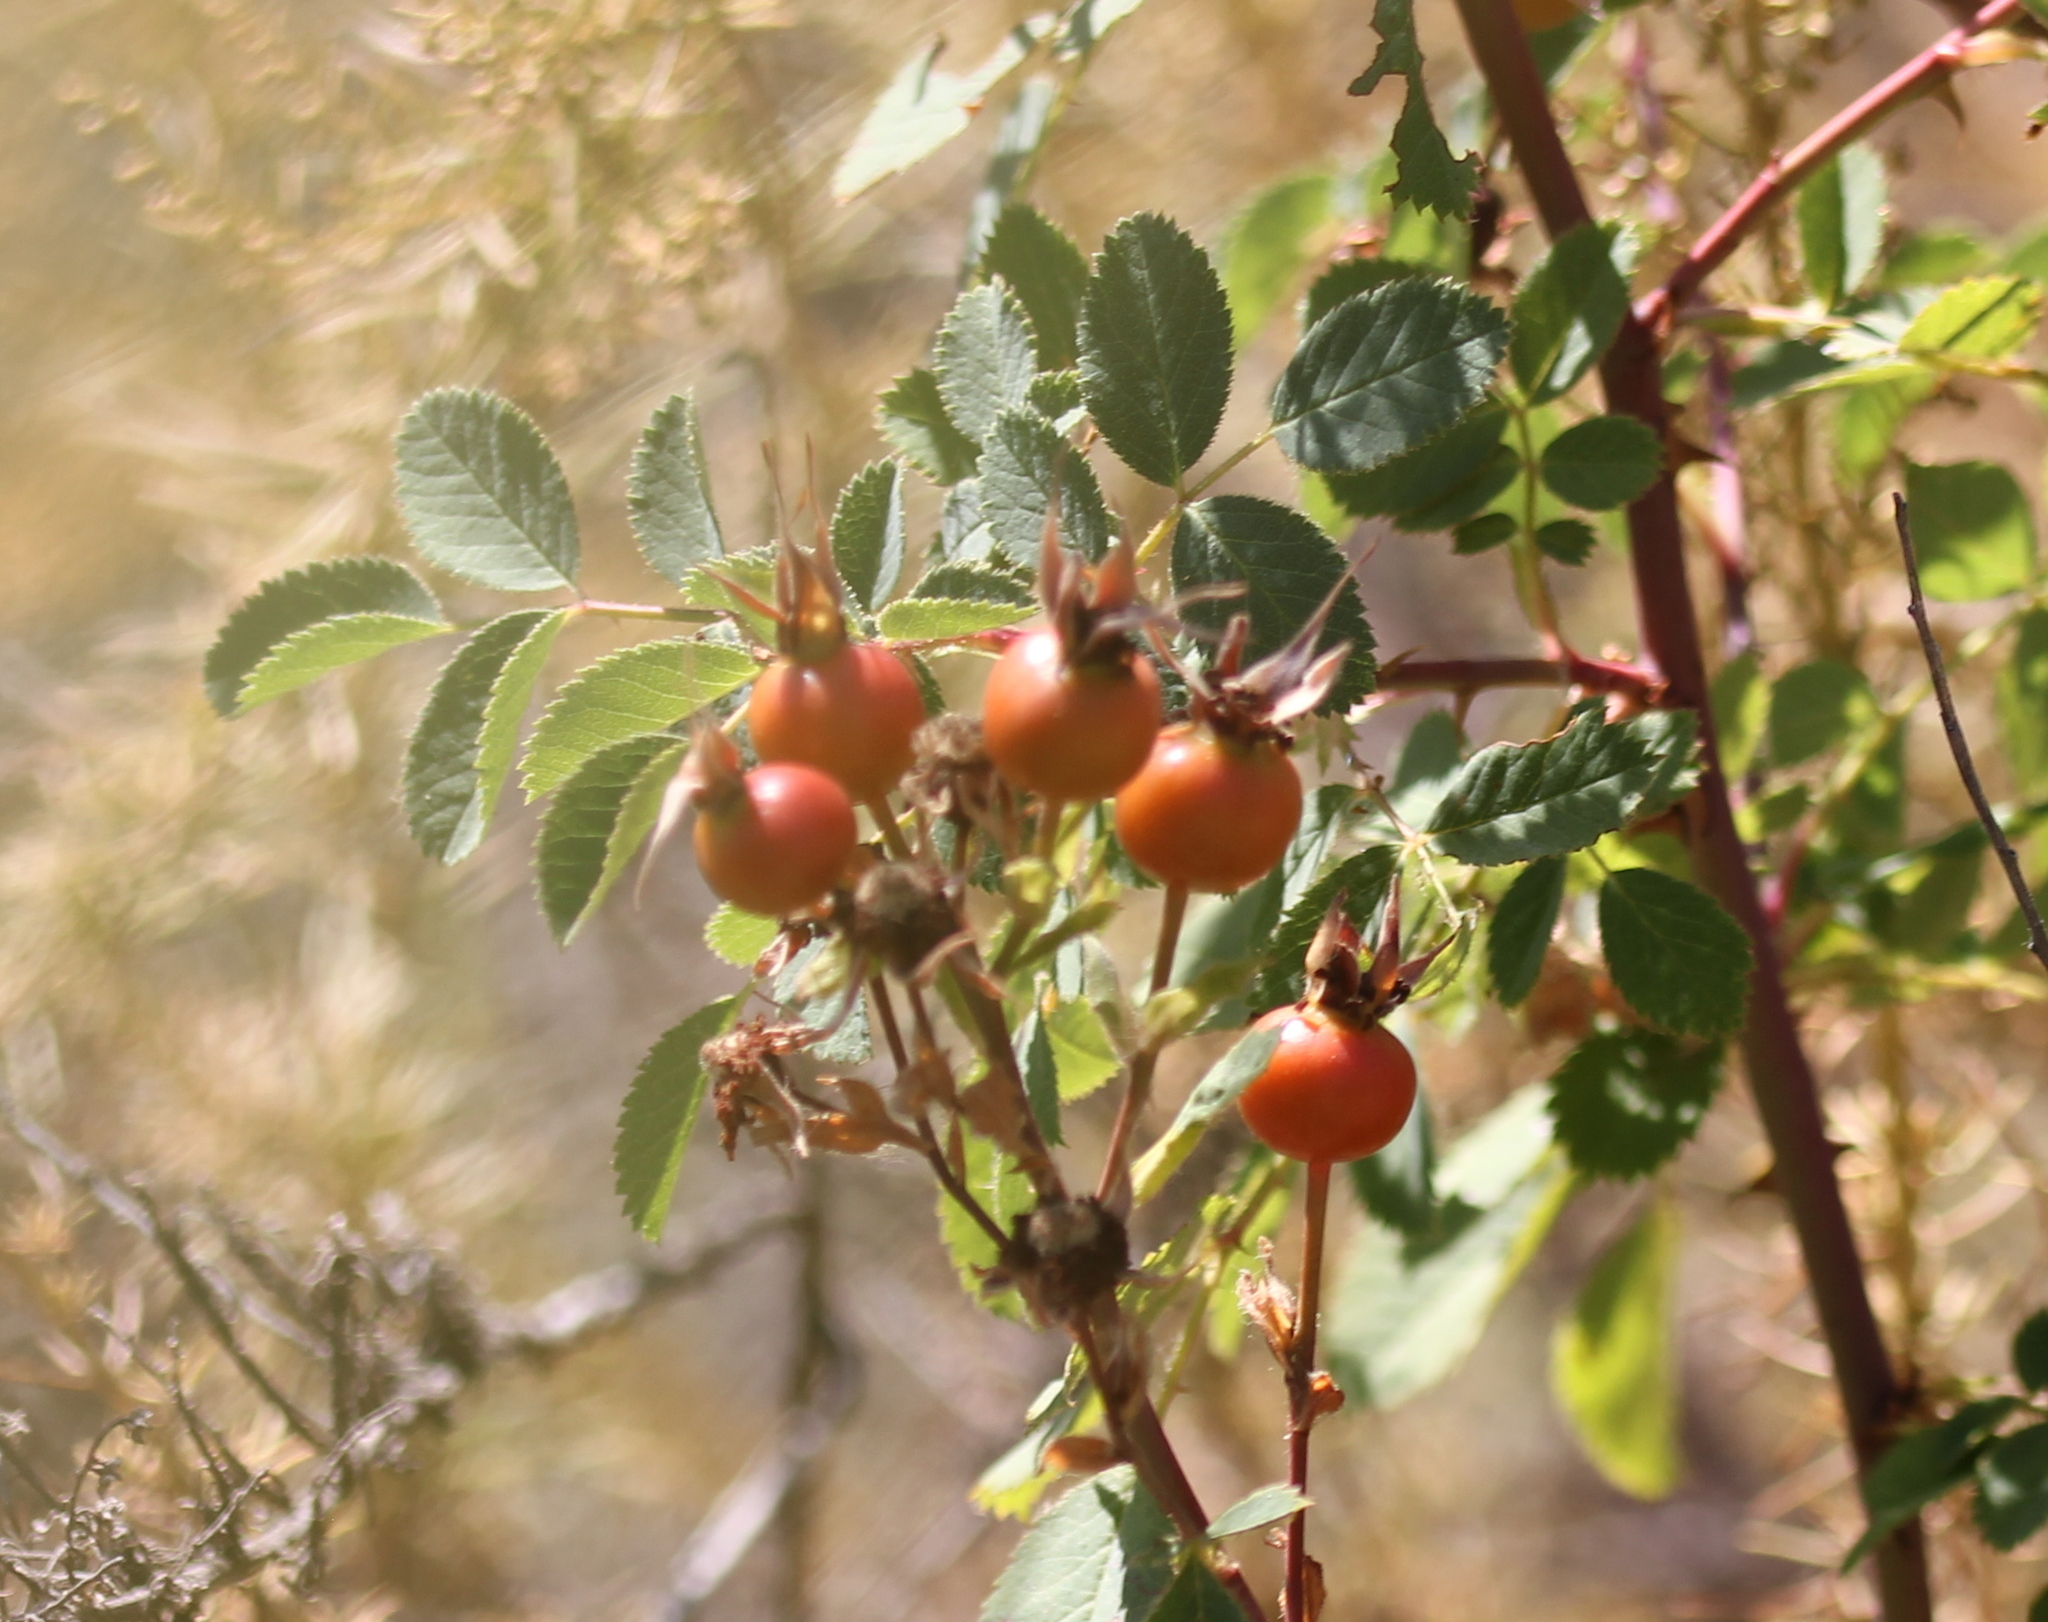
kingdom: Plantae
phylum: Tracheophyta
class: Magnoliopsida
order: Rosales
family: Rosaceae
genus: Rosa
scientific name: Rosa californica
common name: California rose
